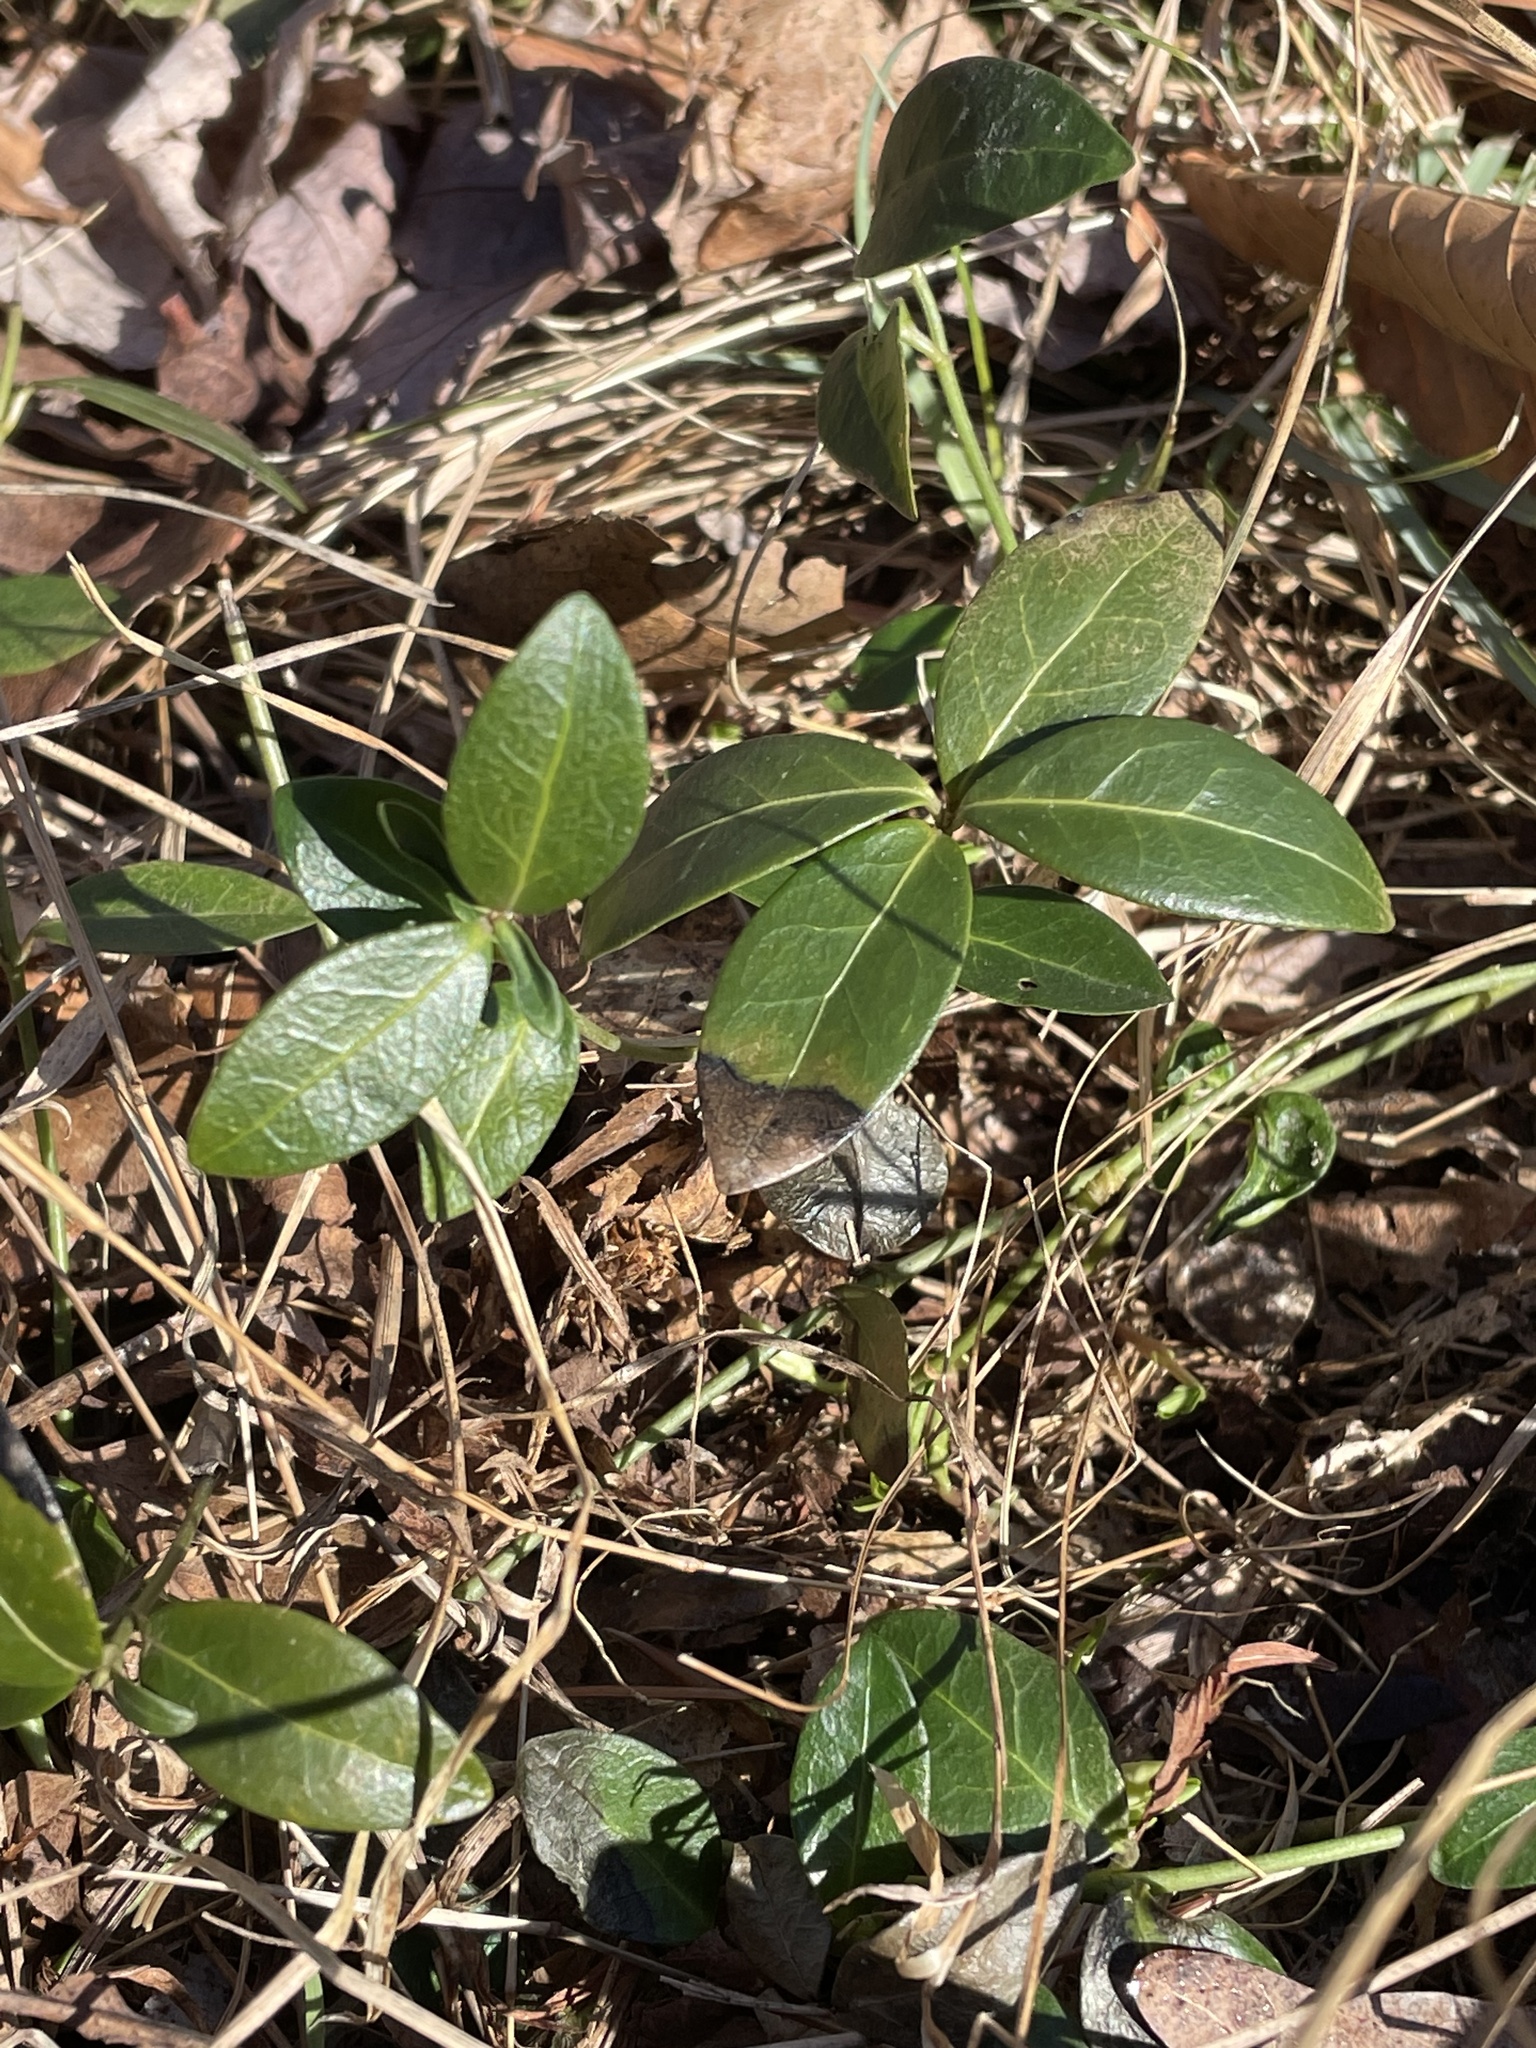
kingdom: Plantae
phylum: Tracheophyta
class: Magnoliopsida
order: Gentianales
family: Apocynaceae
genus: Vinca
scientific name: Vinca minor
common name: Lesser periwinkle
